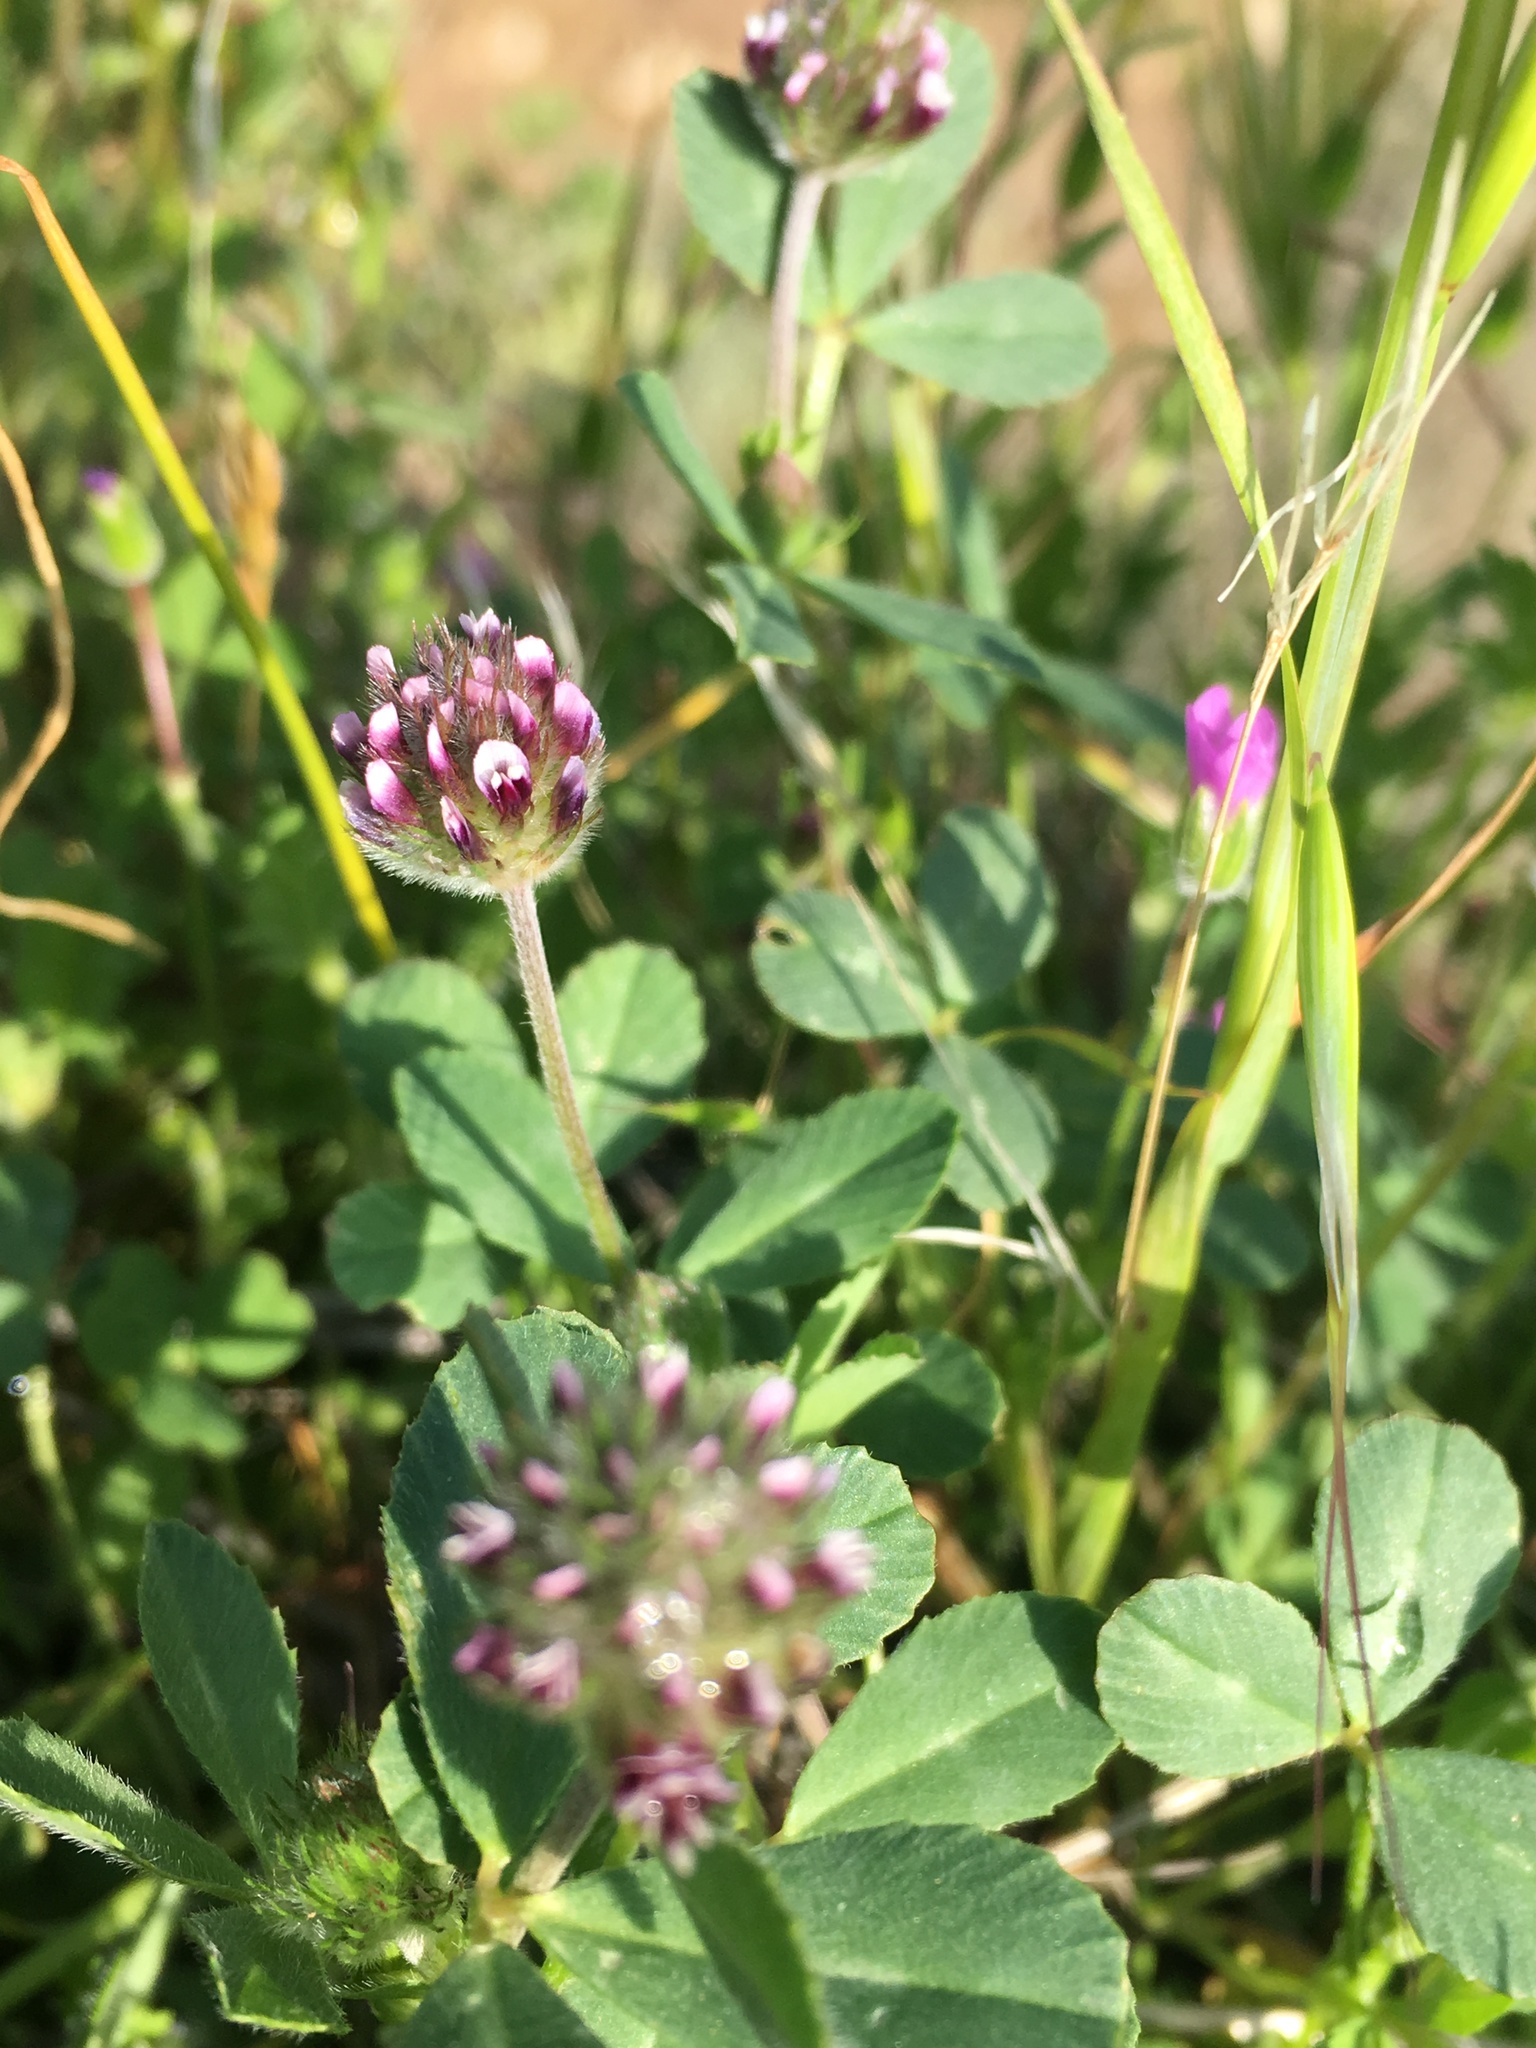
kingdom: Plantae
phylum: Tracheophyta
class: Magnoliopsida
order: Fabales
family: Fabaceae
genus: Trifolium
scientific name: Trifolium albopurpureum
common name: Rancheria clover
